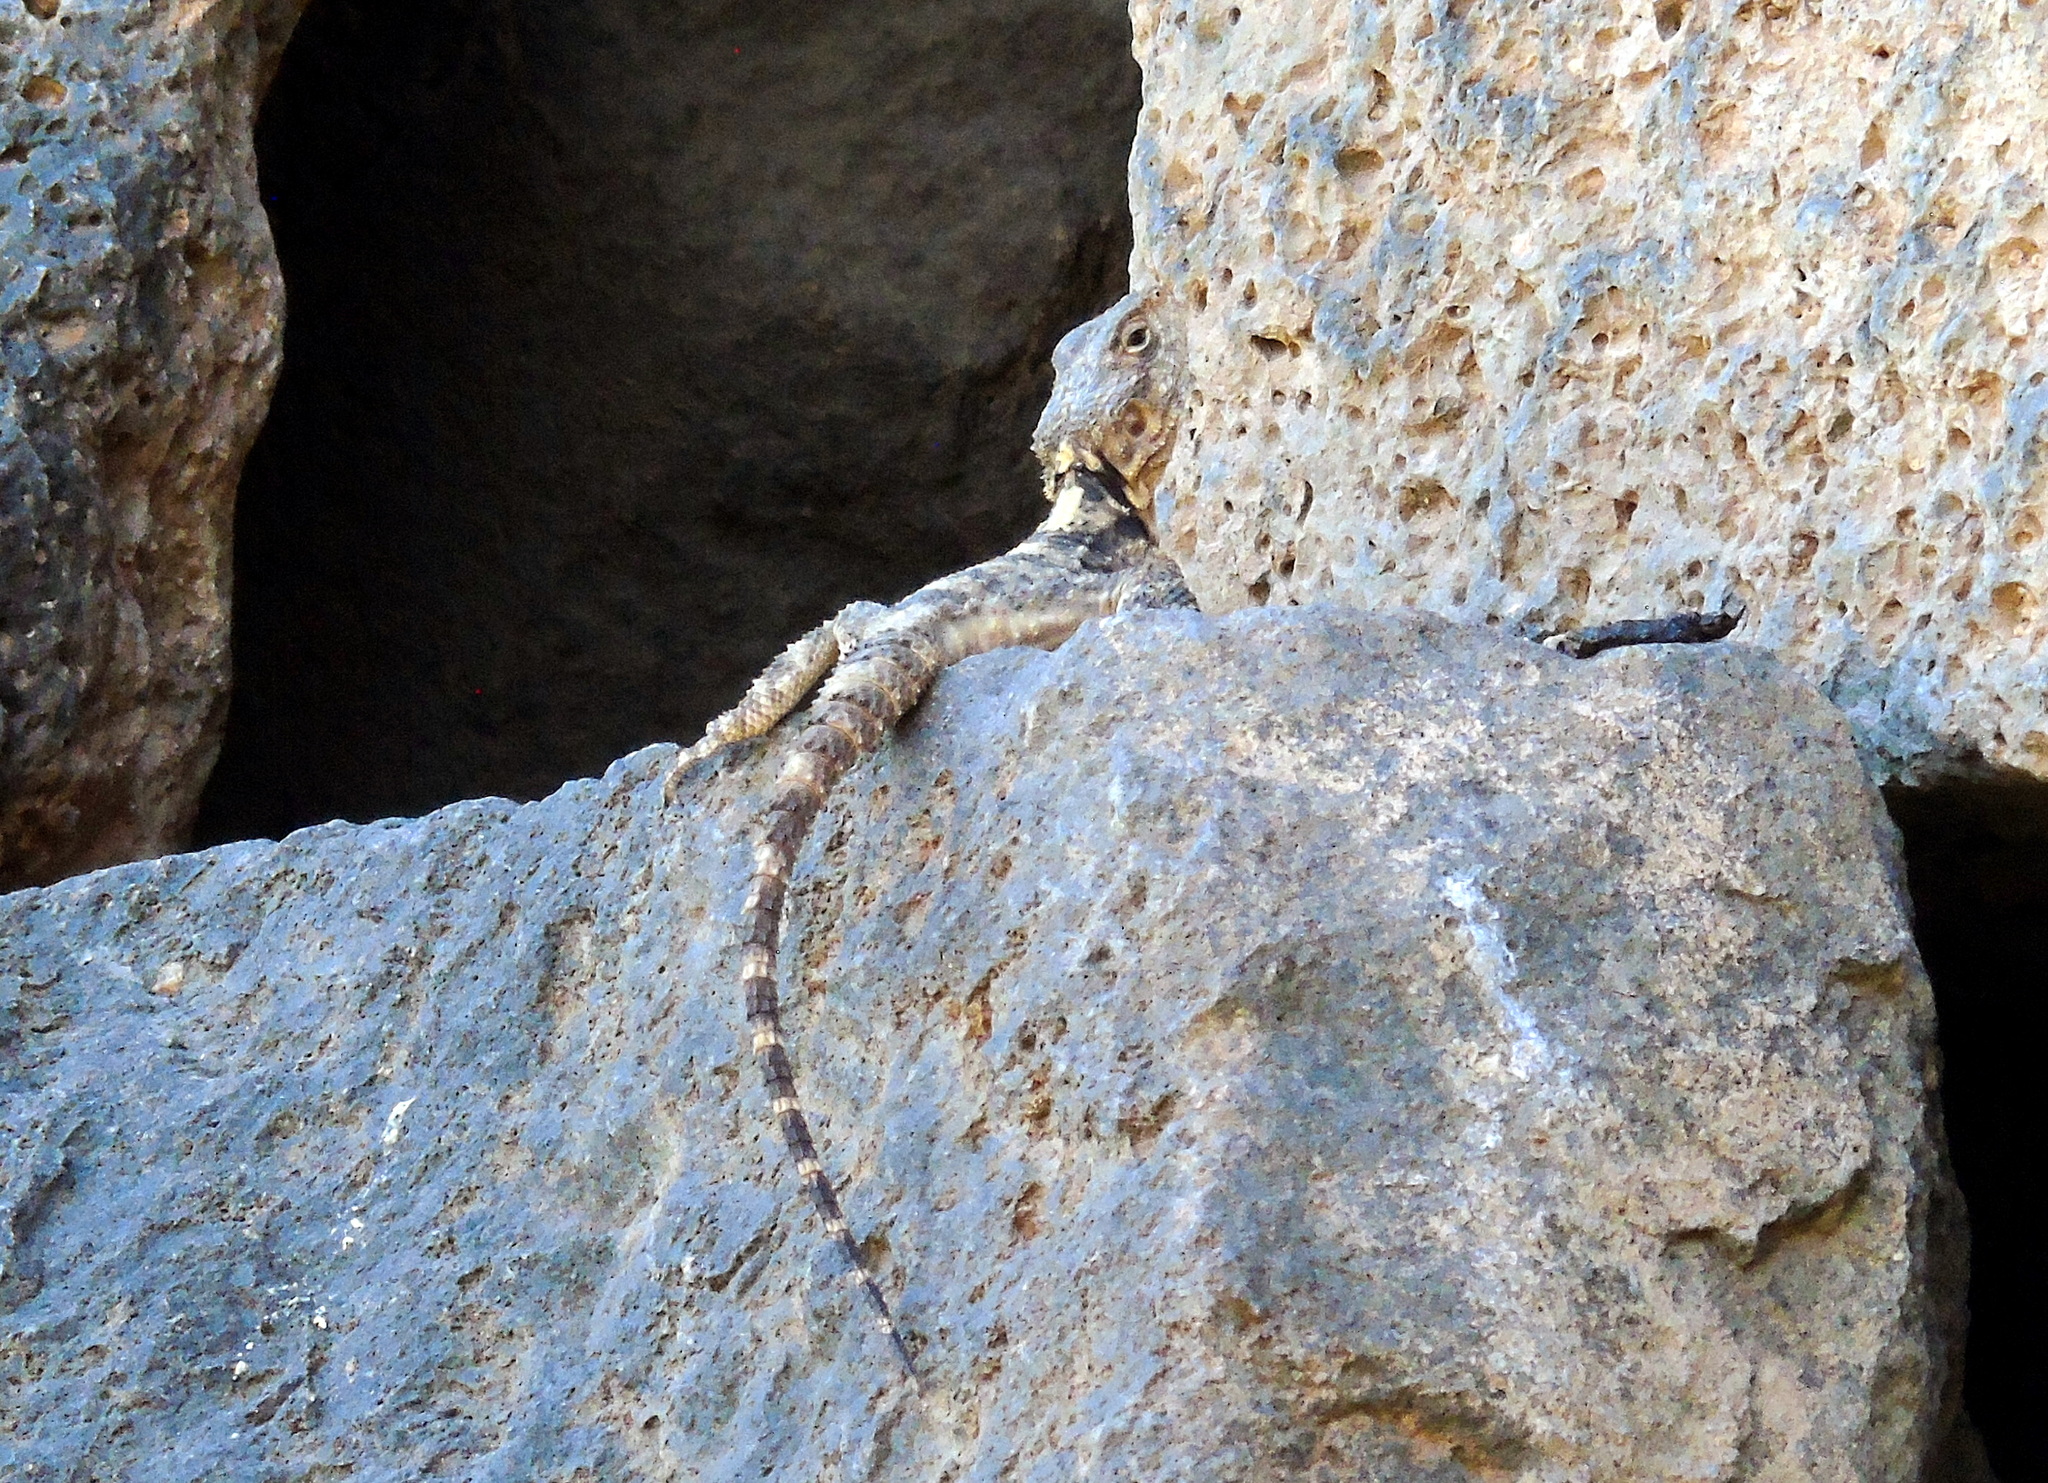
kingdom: Animalia
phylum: Chordata
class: Squamata
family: Agamidae
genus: Stellagama
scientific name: Stellagama stellio
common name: Starred agama
